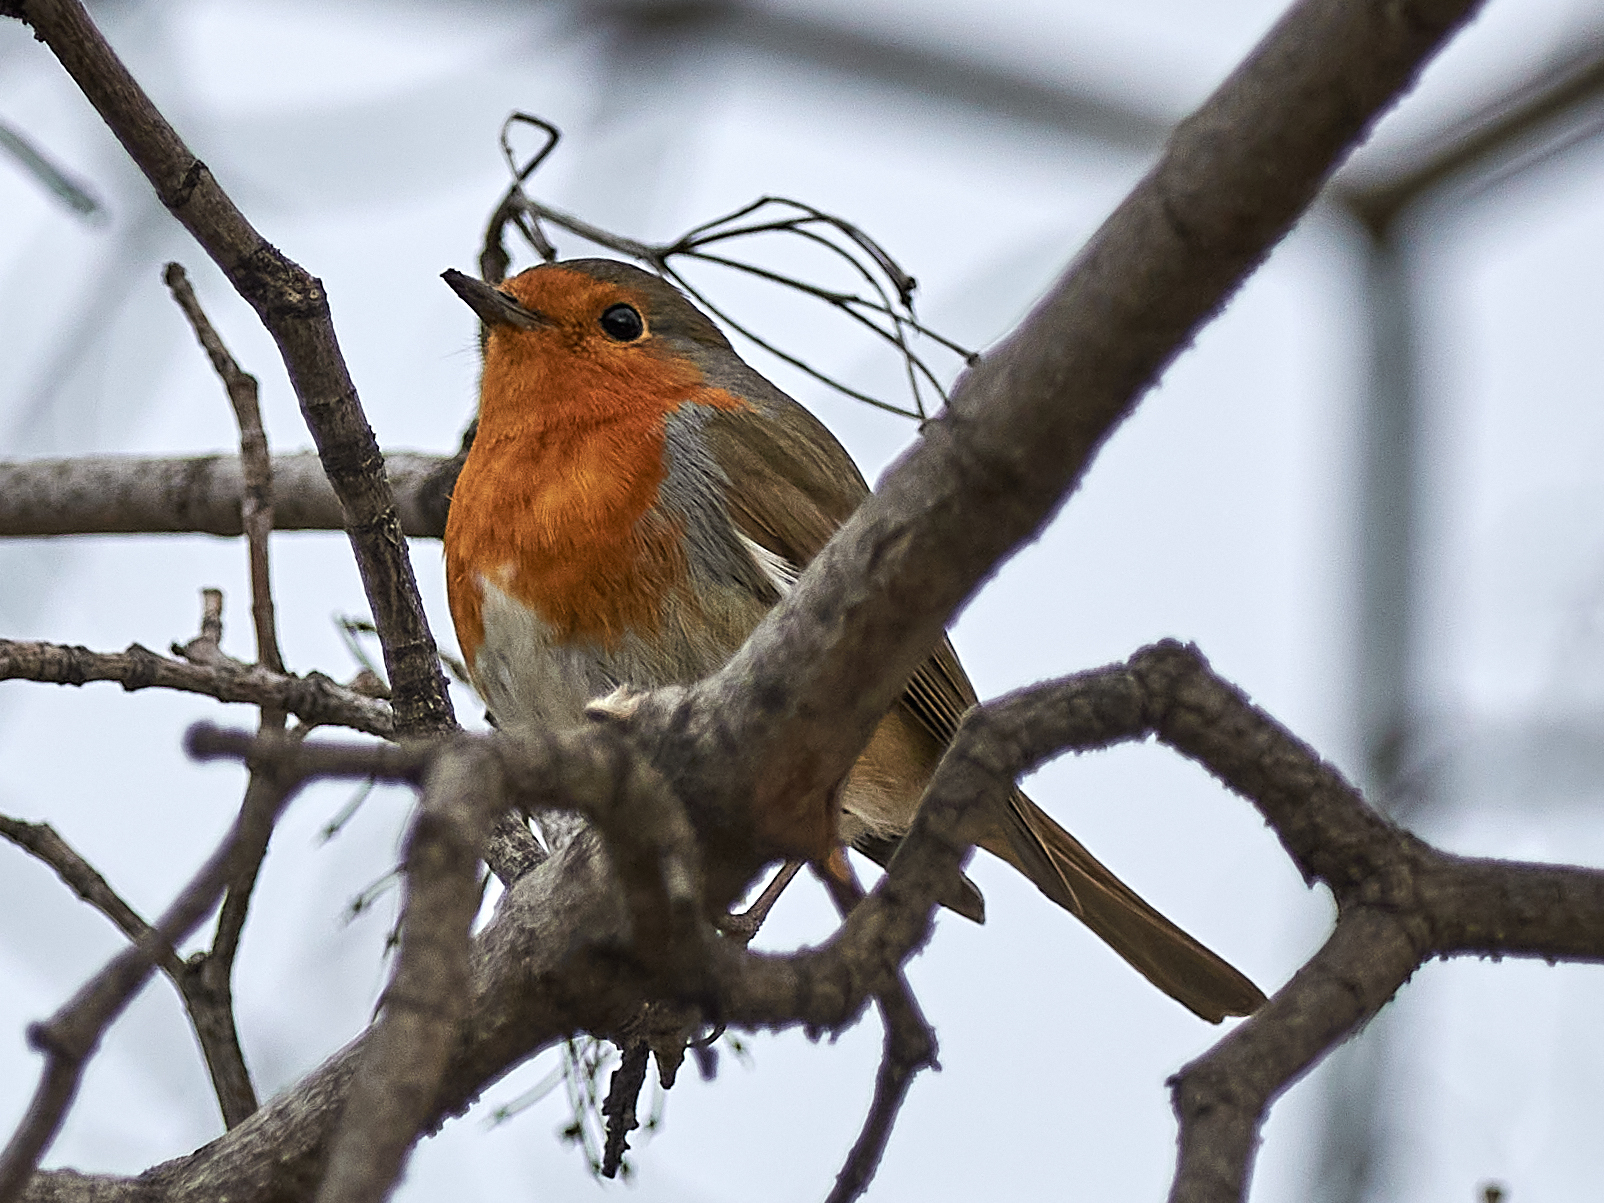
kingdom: Animalia
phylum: Chordata
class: Aves
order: Passeriformes
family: Muscicapidae
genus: Erithacus
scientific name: Erithacus rubecula
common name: European robin
